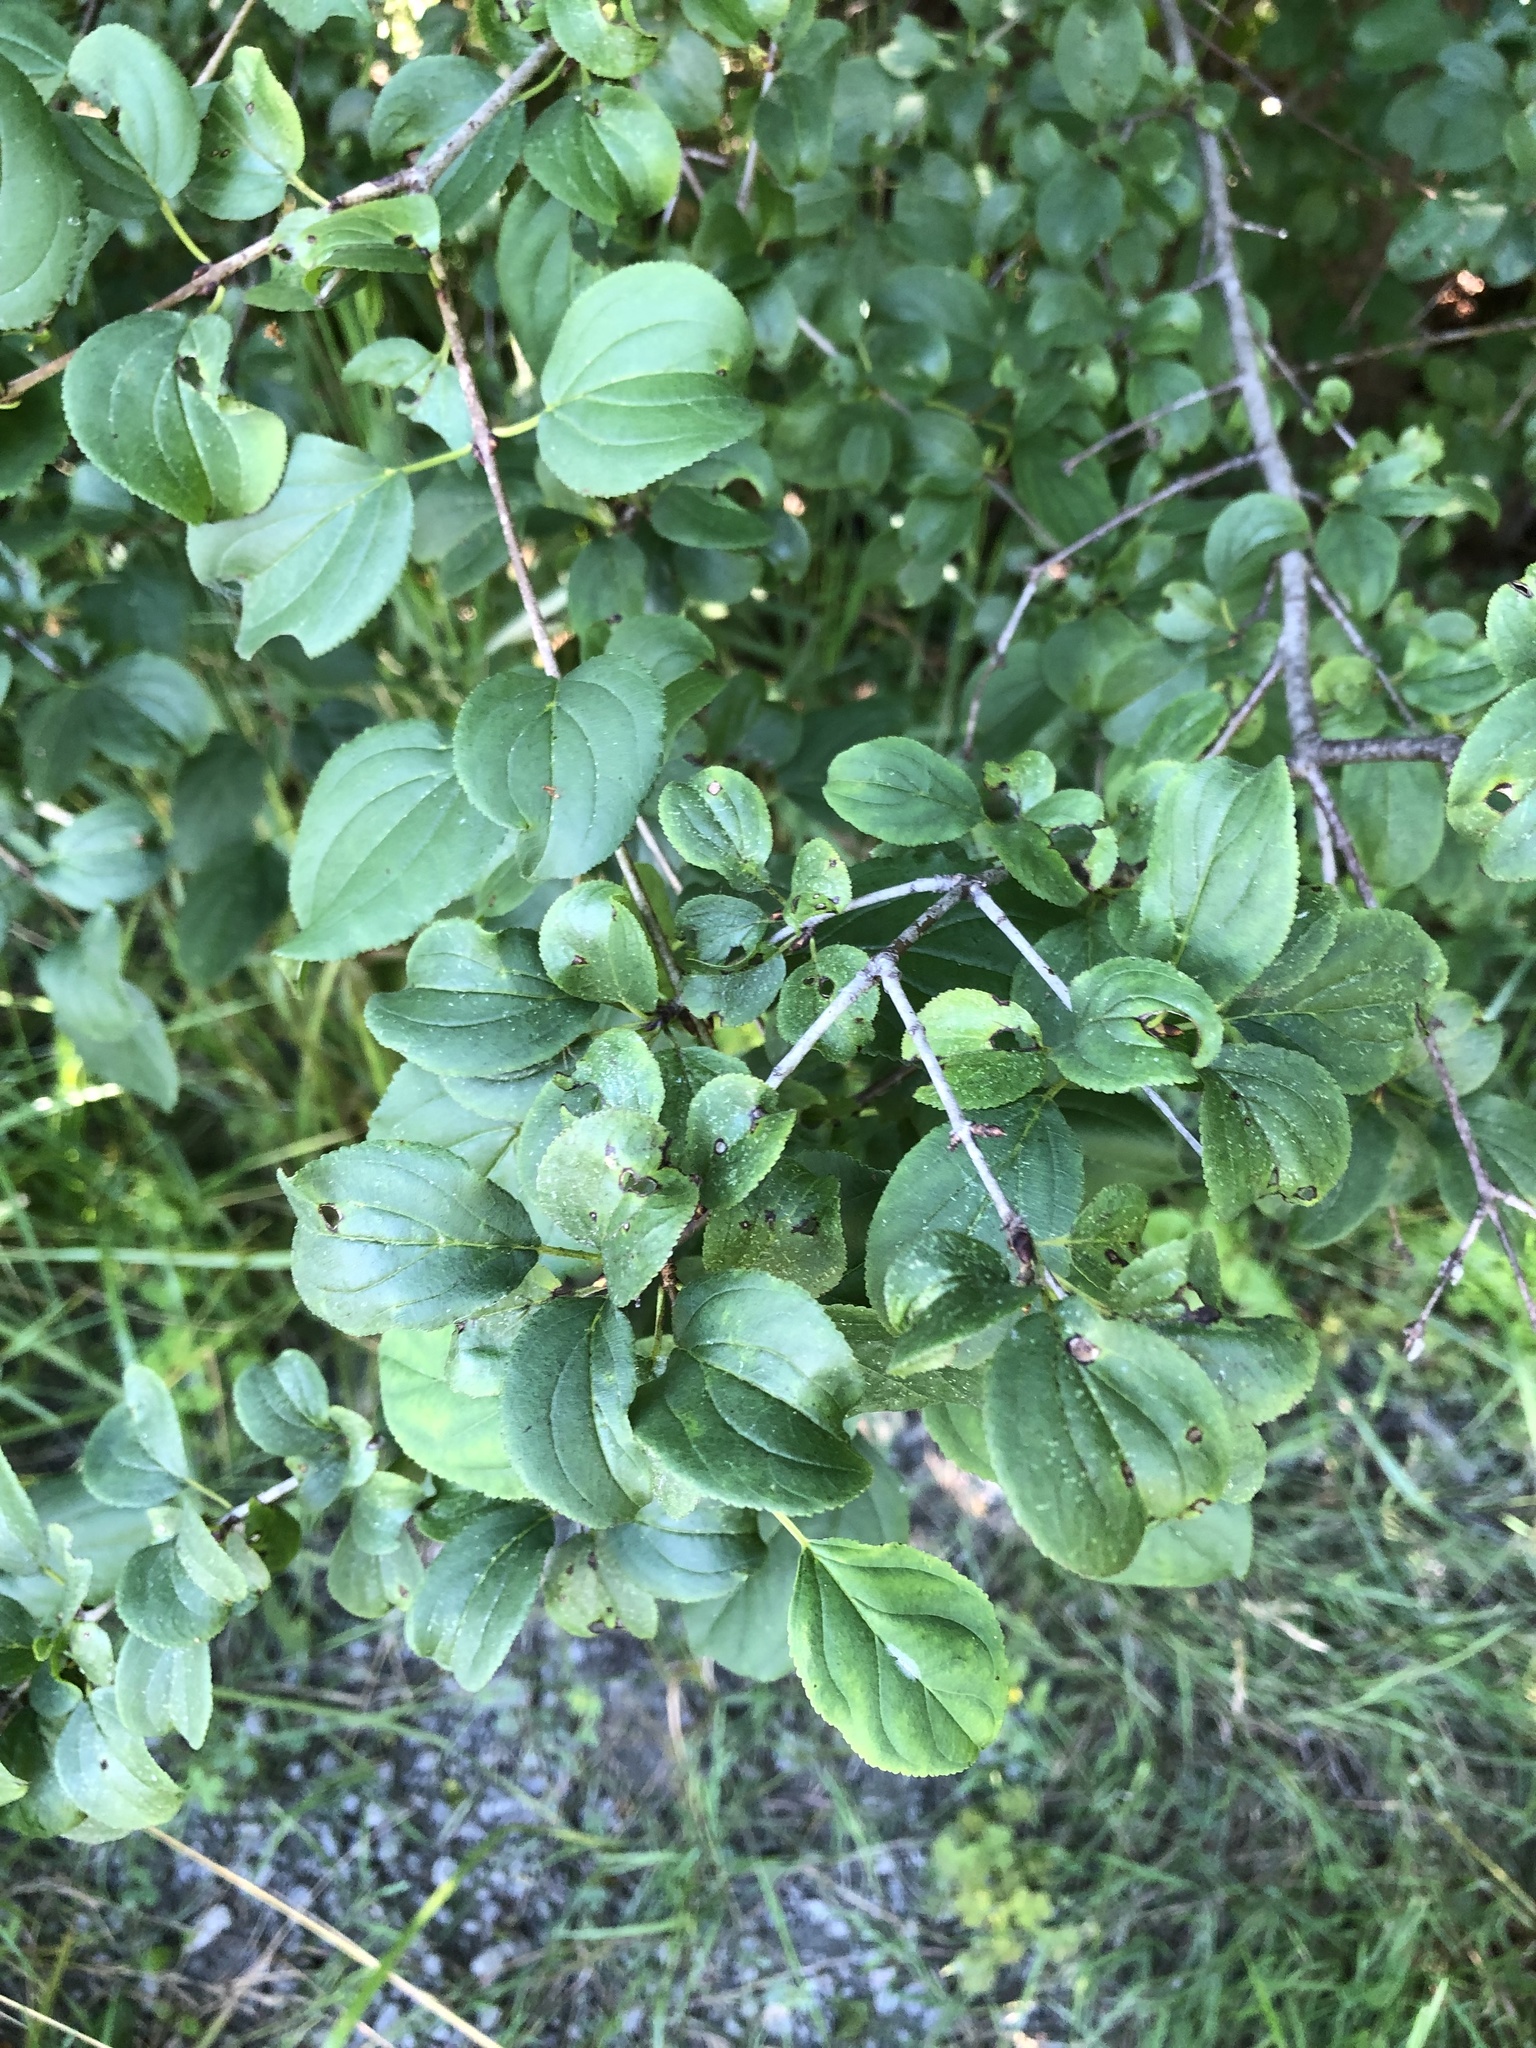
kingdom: Plantae
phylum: Tracheophyta
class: Magnoliopsida
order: Rosales
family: Rhamnaceae
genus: Rhamnus
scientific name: Rhamnus cathartica
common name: Common buckthorn
